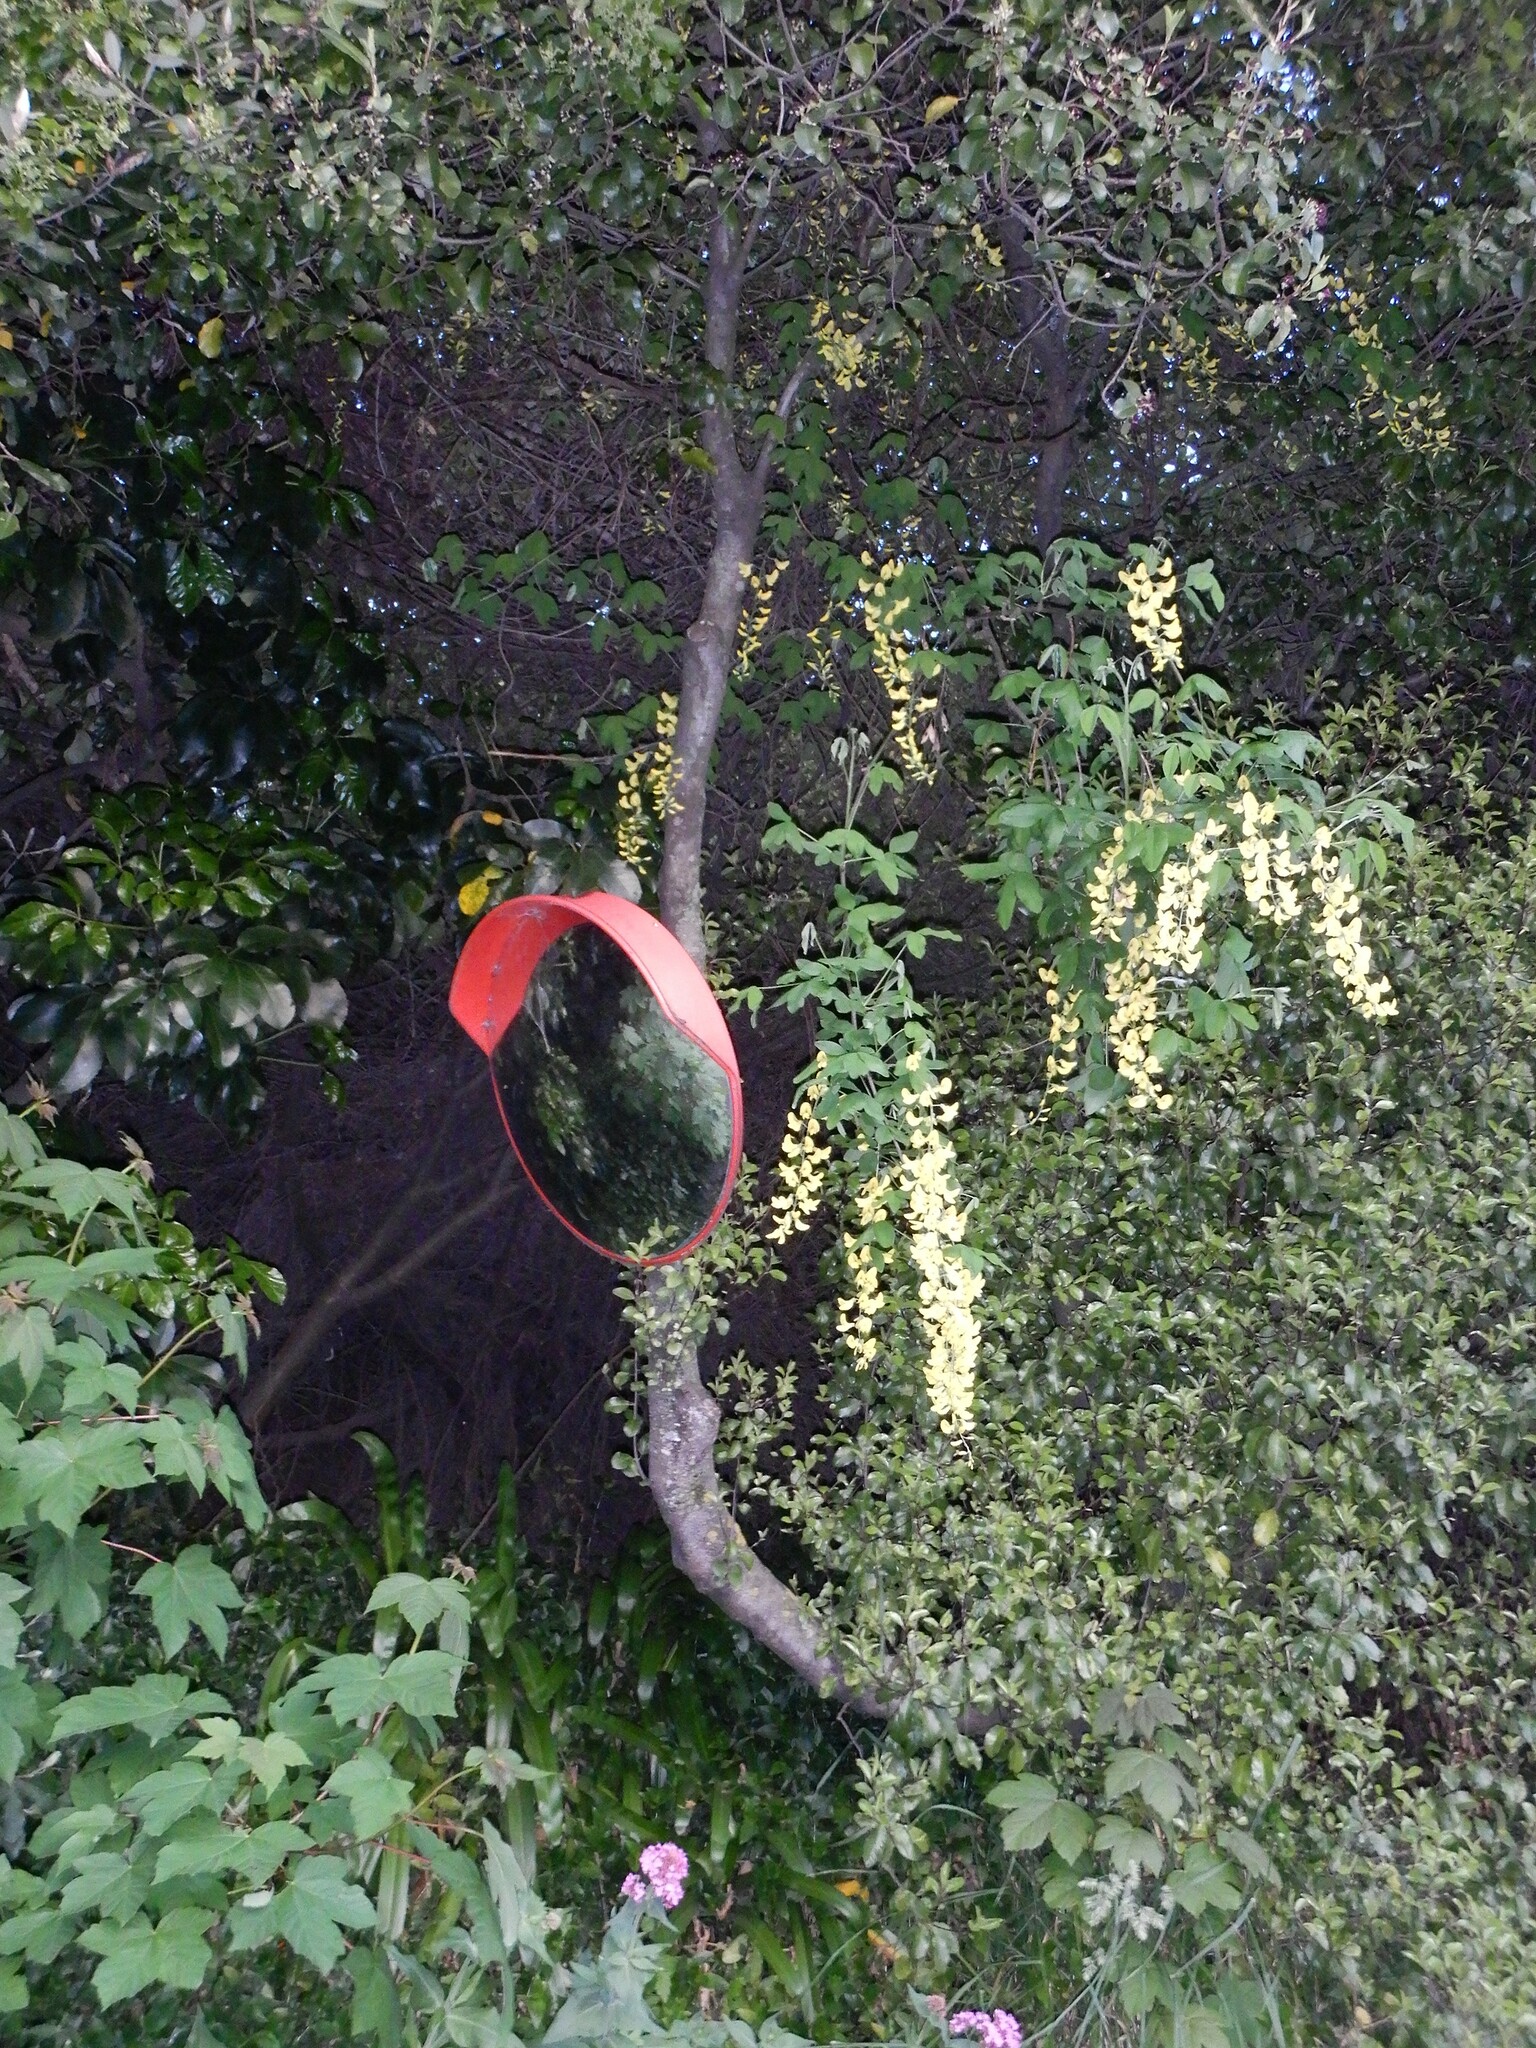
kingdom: Plantae
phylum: Tracheophyta
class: Magnoliopsida
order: Fabales
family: Fabaceae
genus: Laburnum
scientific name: Laburnum anagyroides
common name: Laburnum
